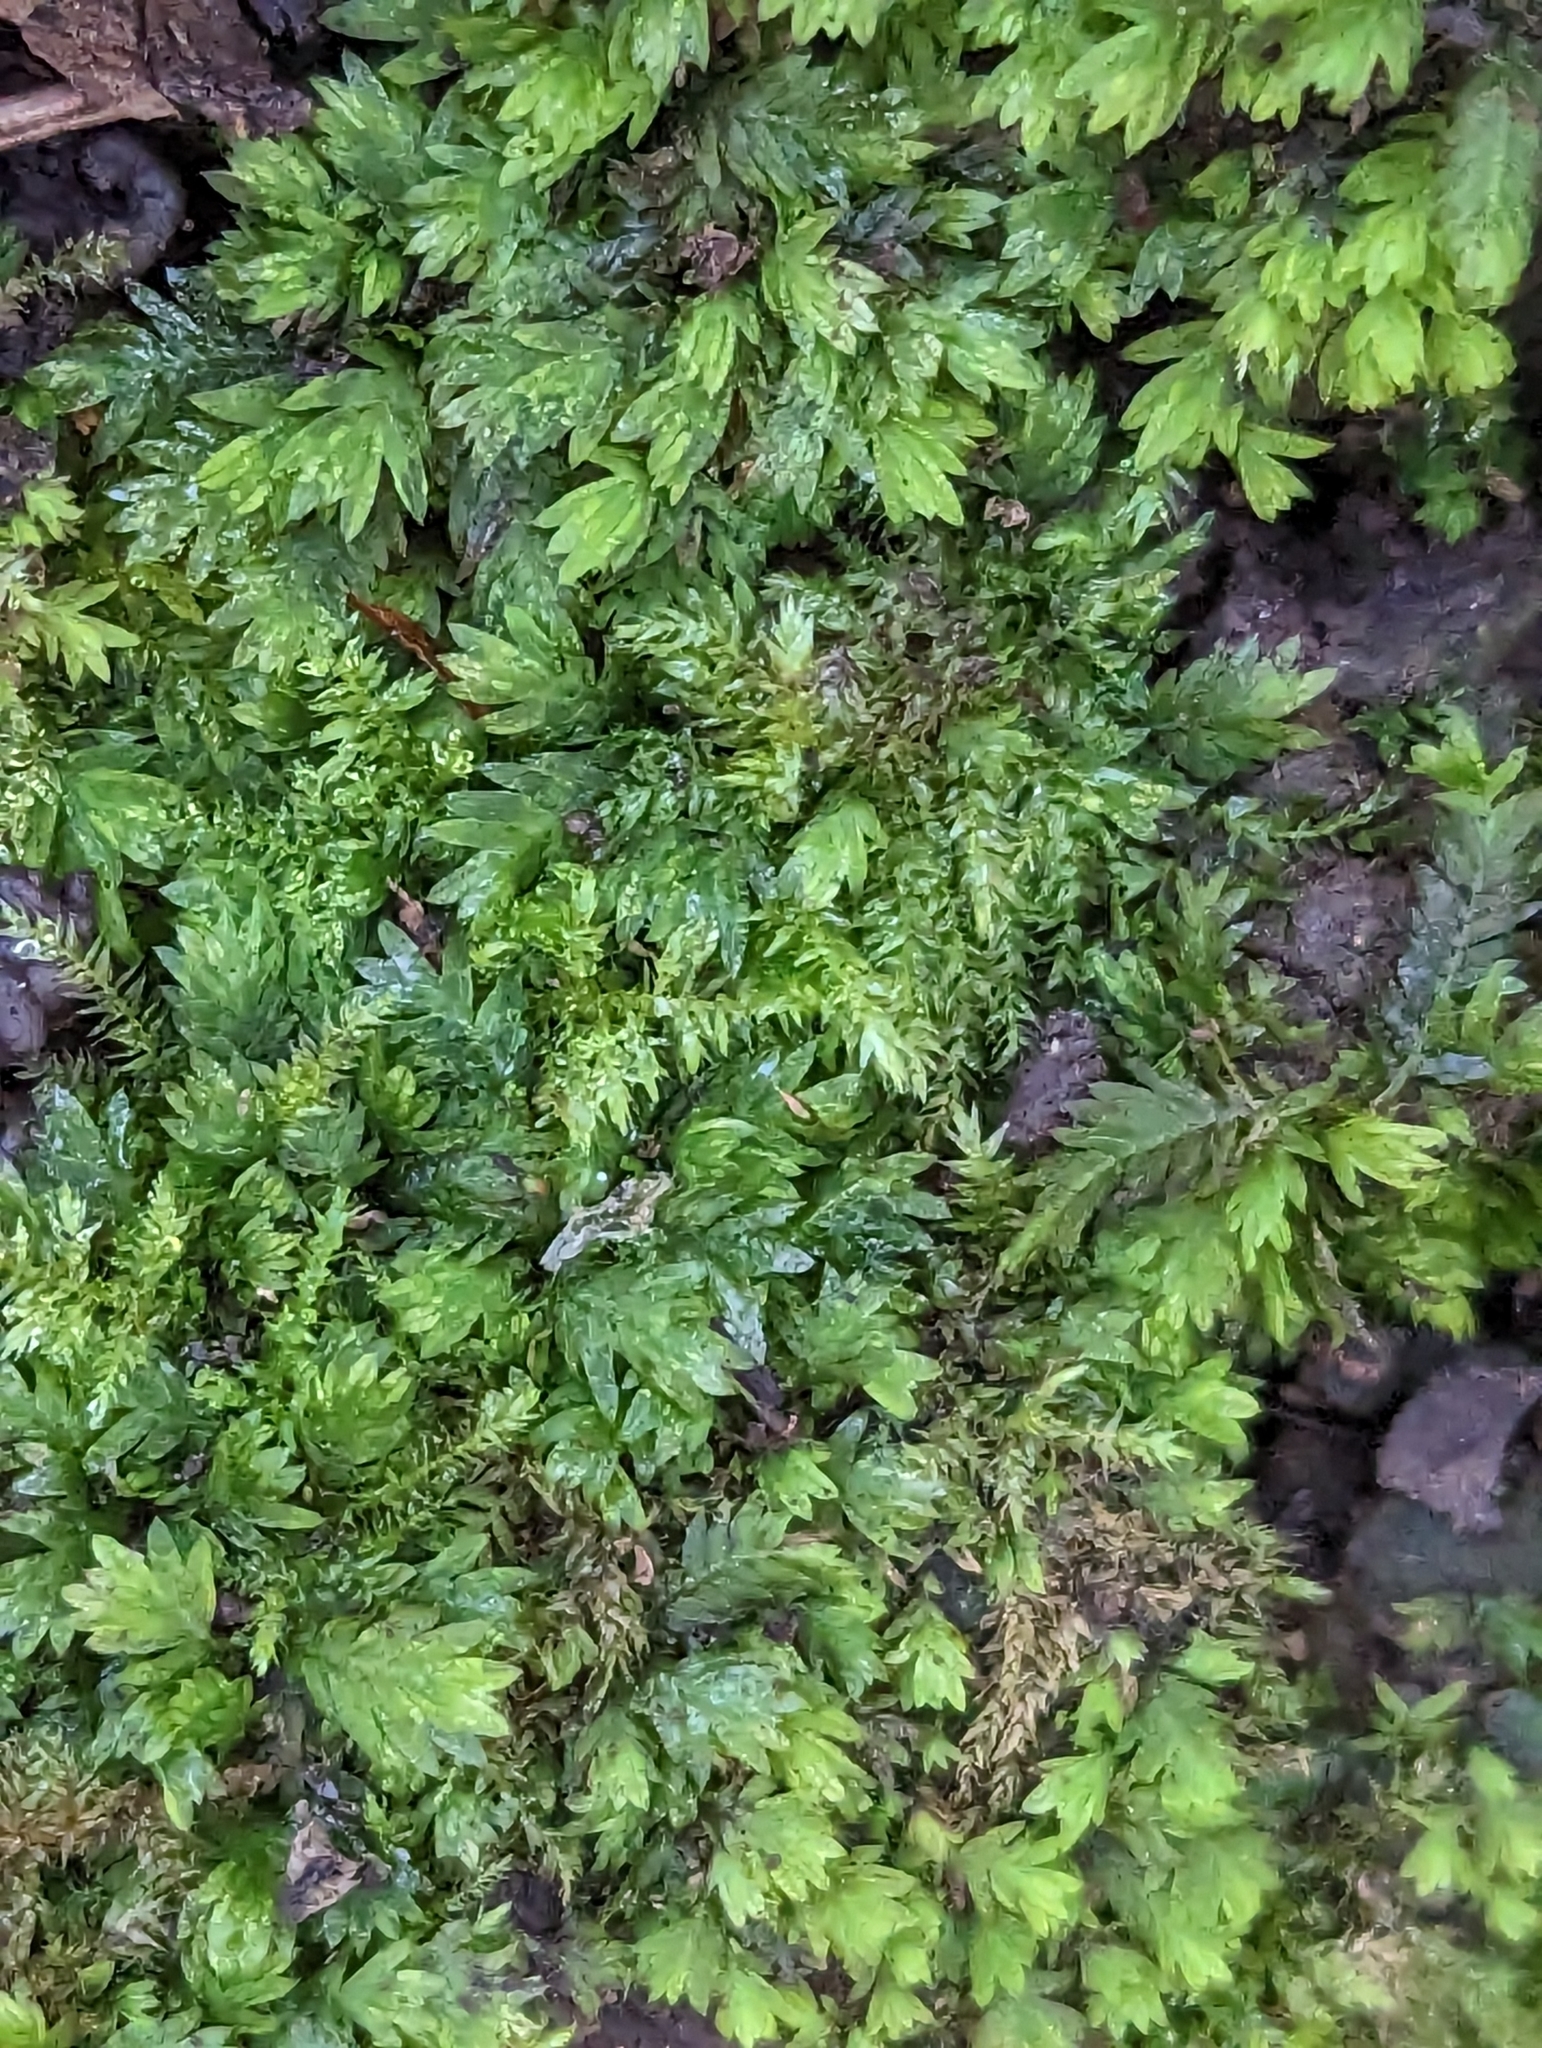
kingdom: Plantae
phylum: Bryophyta
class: Bryopsida
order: Dicranales
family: Fissidentaceae
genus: Fissidens
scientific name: Fissidens taxifolius
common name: Yew-leaved pocket moss
